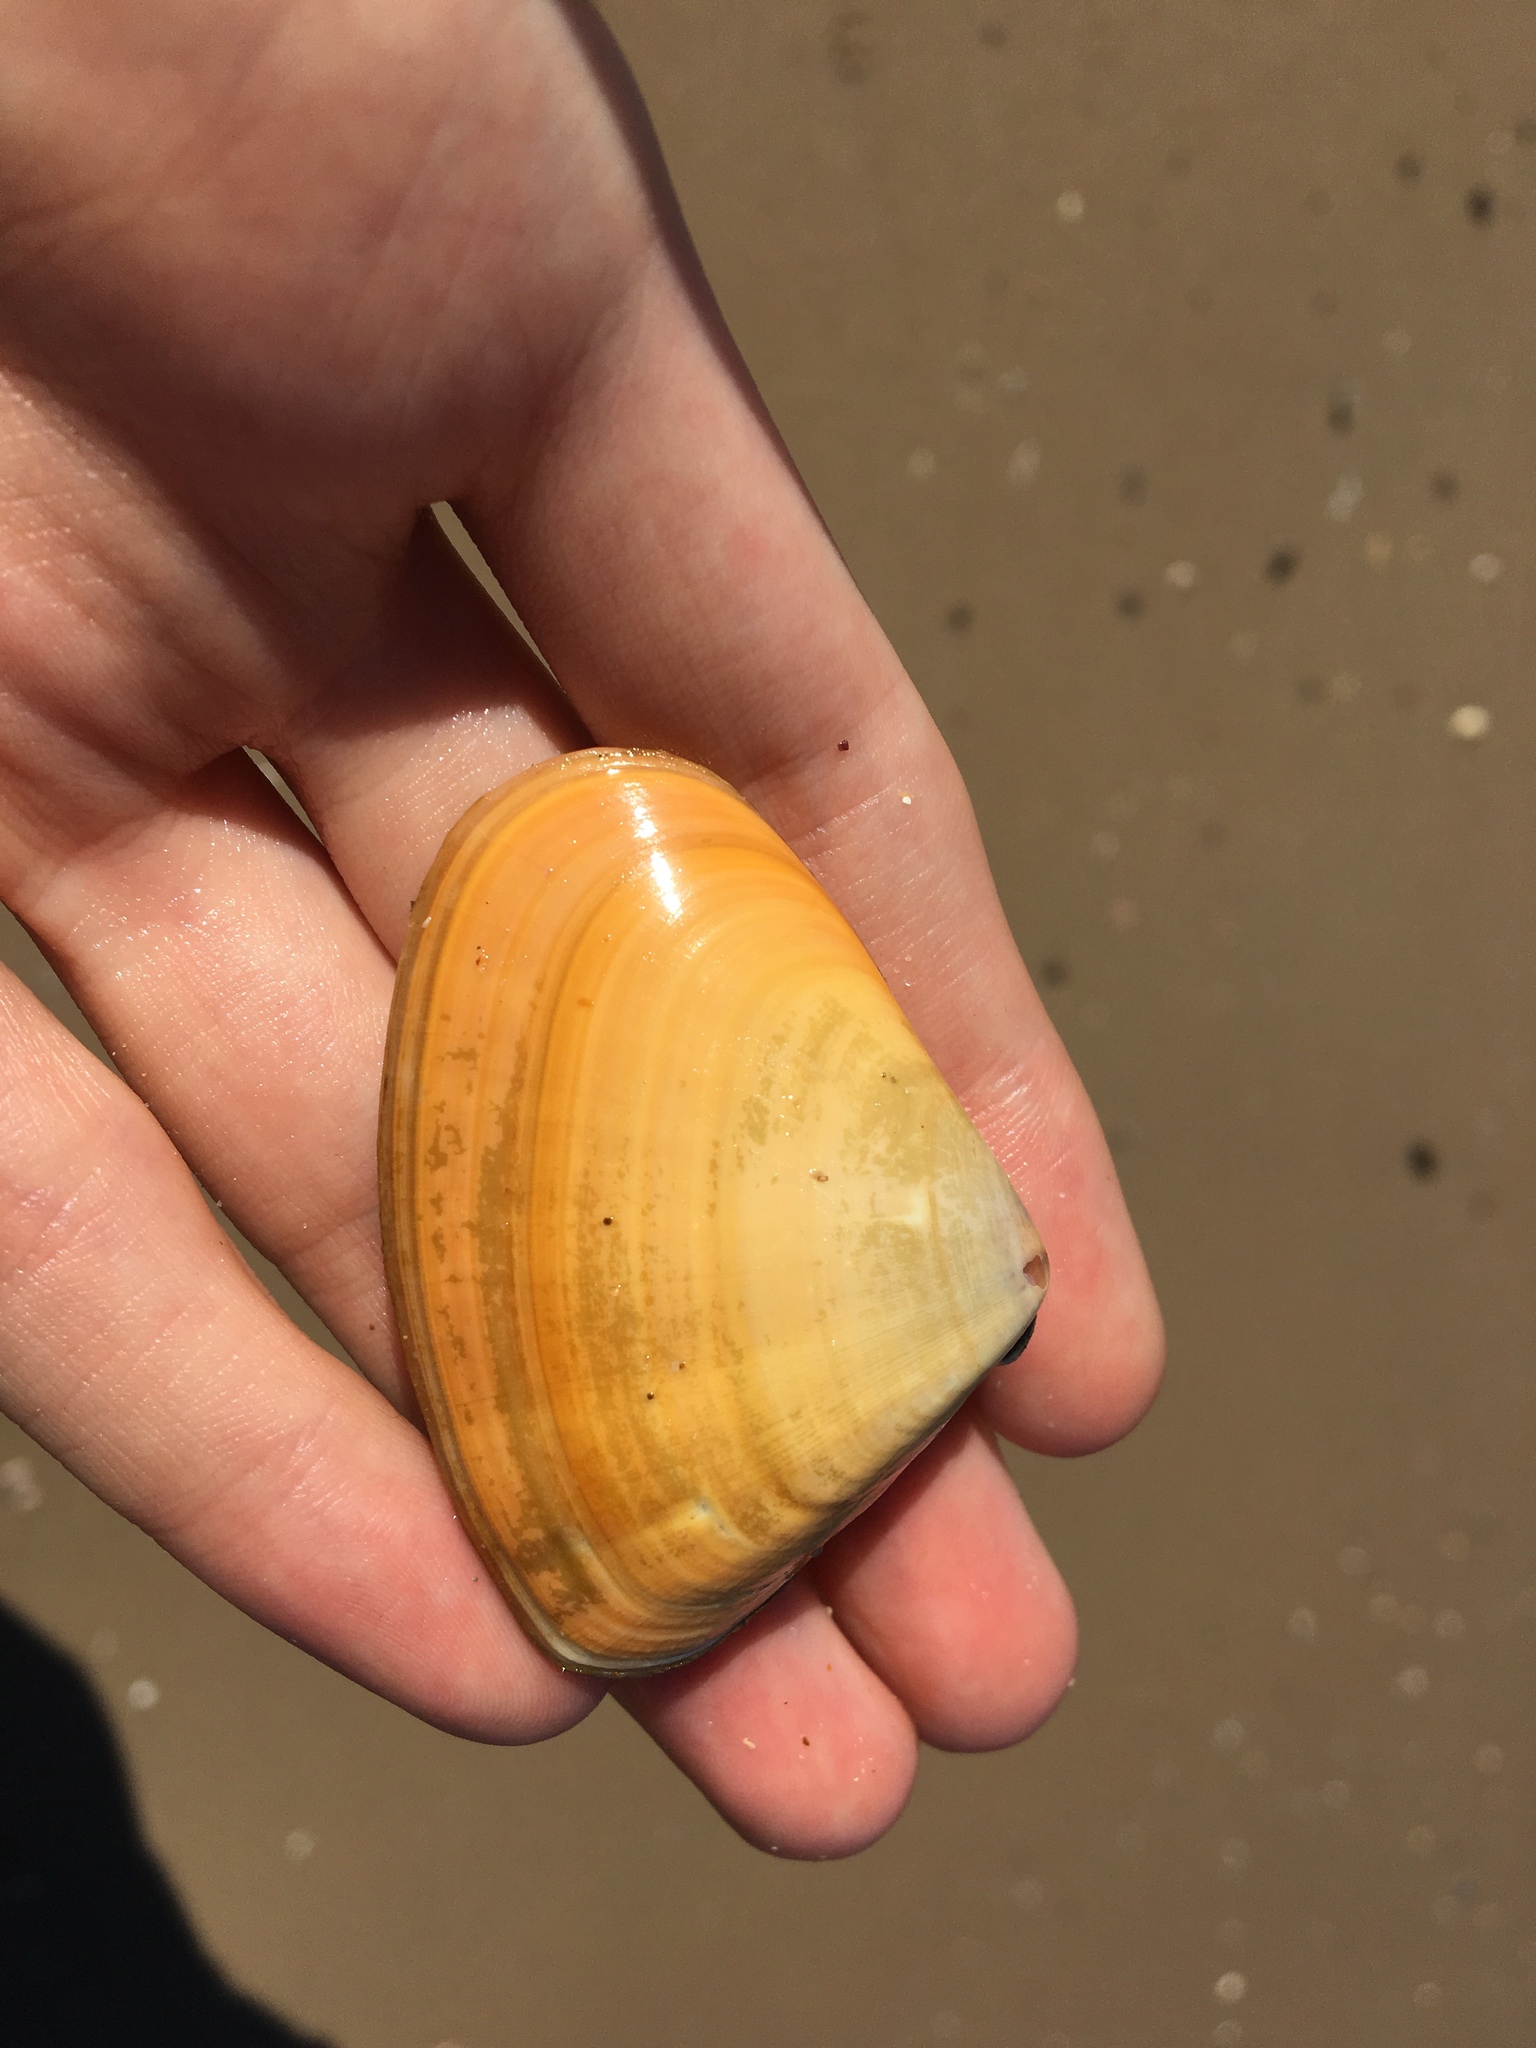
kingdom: Animalia
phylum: Mollusca
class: Bivalvia
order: Cardiida
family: Donacidae
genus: Latona
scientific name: Latona deltoides
